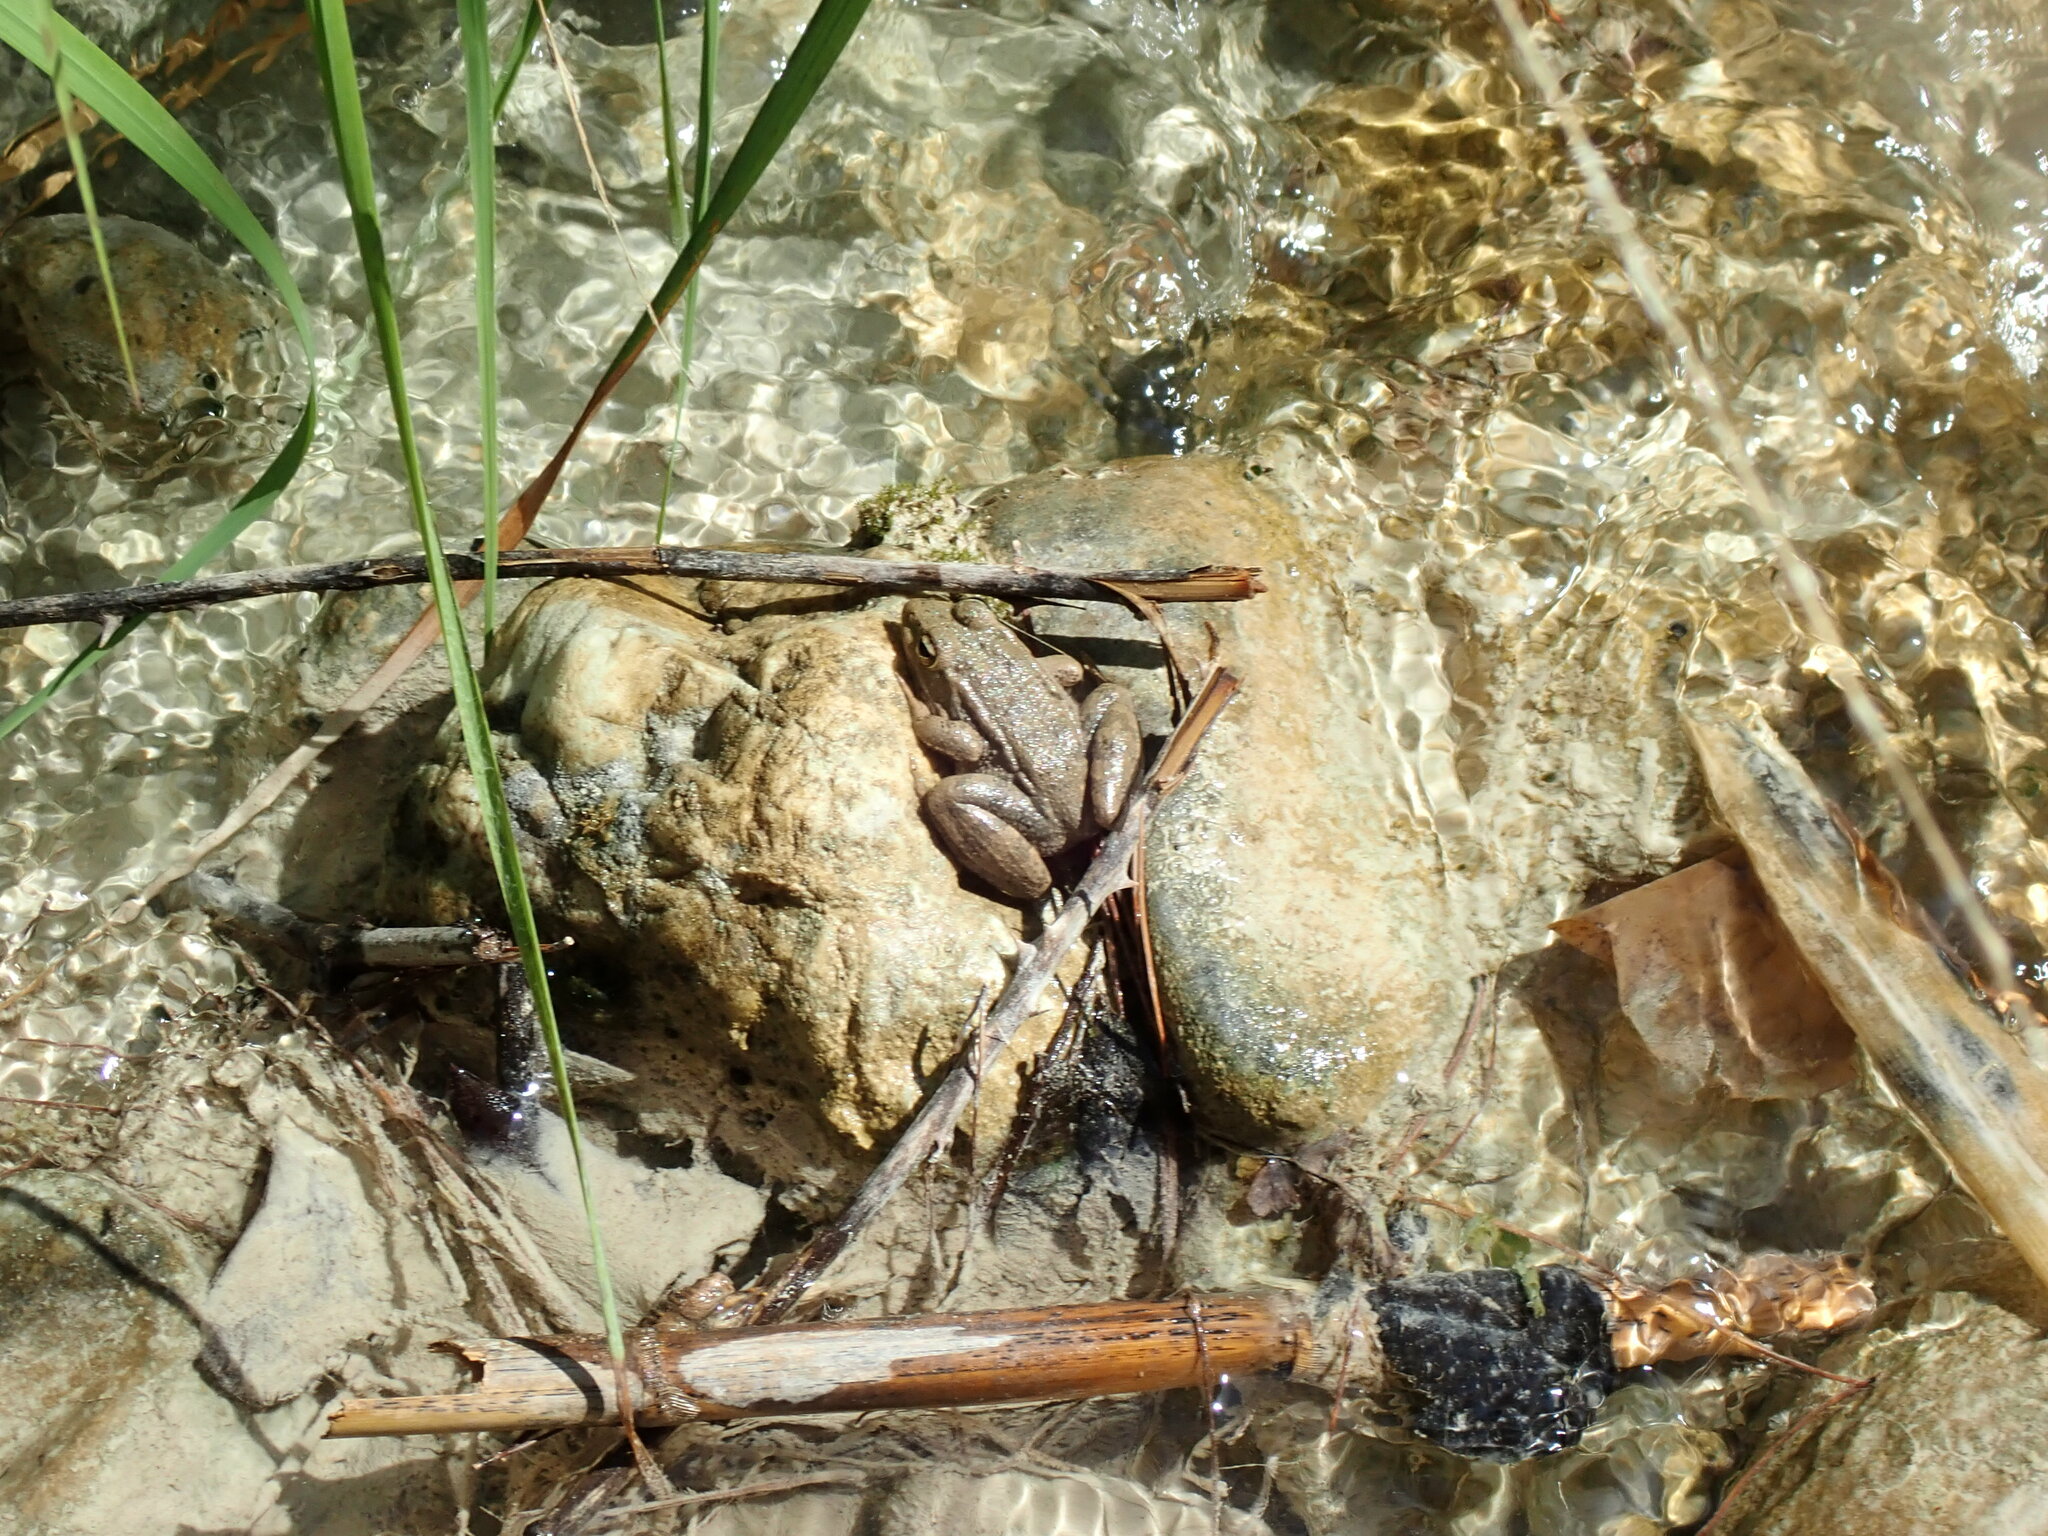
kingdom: Animalia
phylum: Chordata
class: Amphibia
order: Anura
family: Ranidae
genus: Pelophylax
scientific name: Pelophylax perezi
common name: Perez's frog
